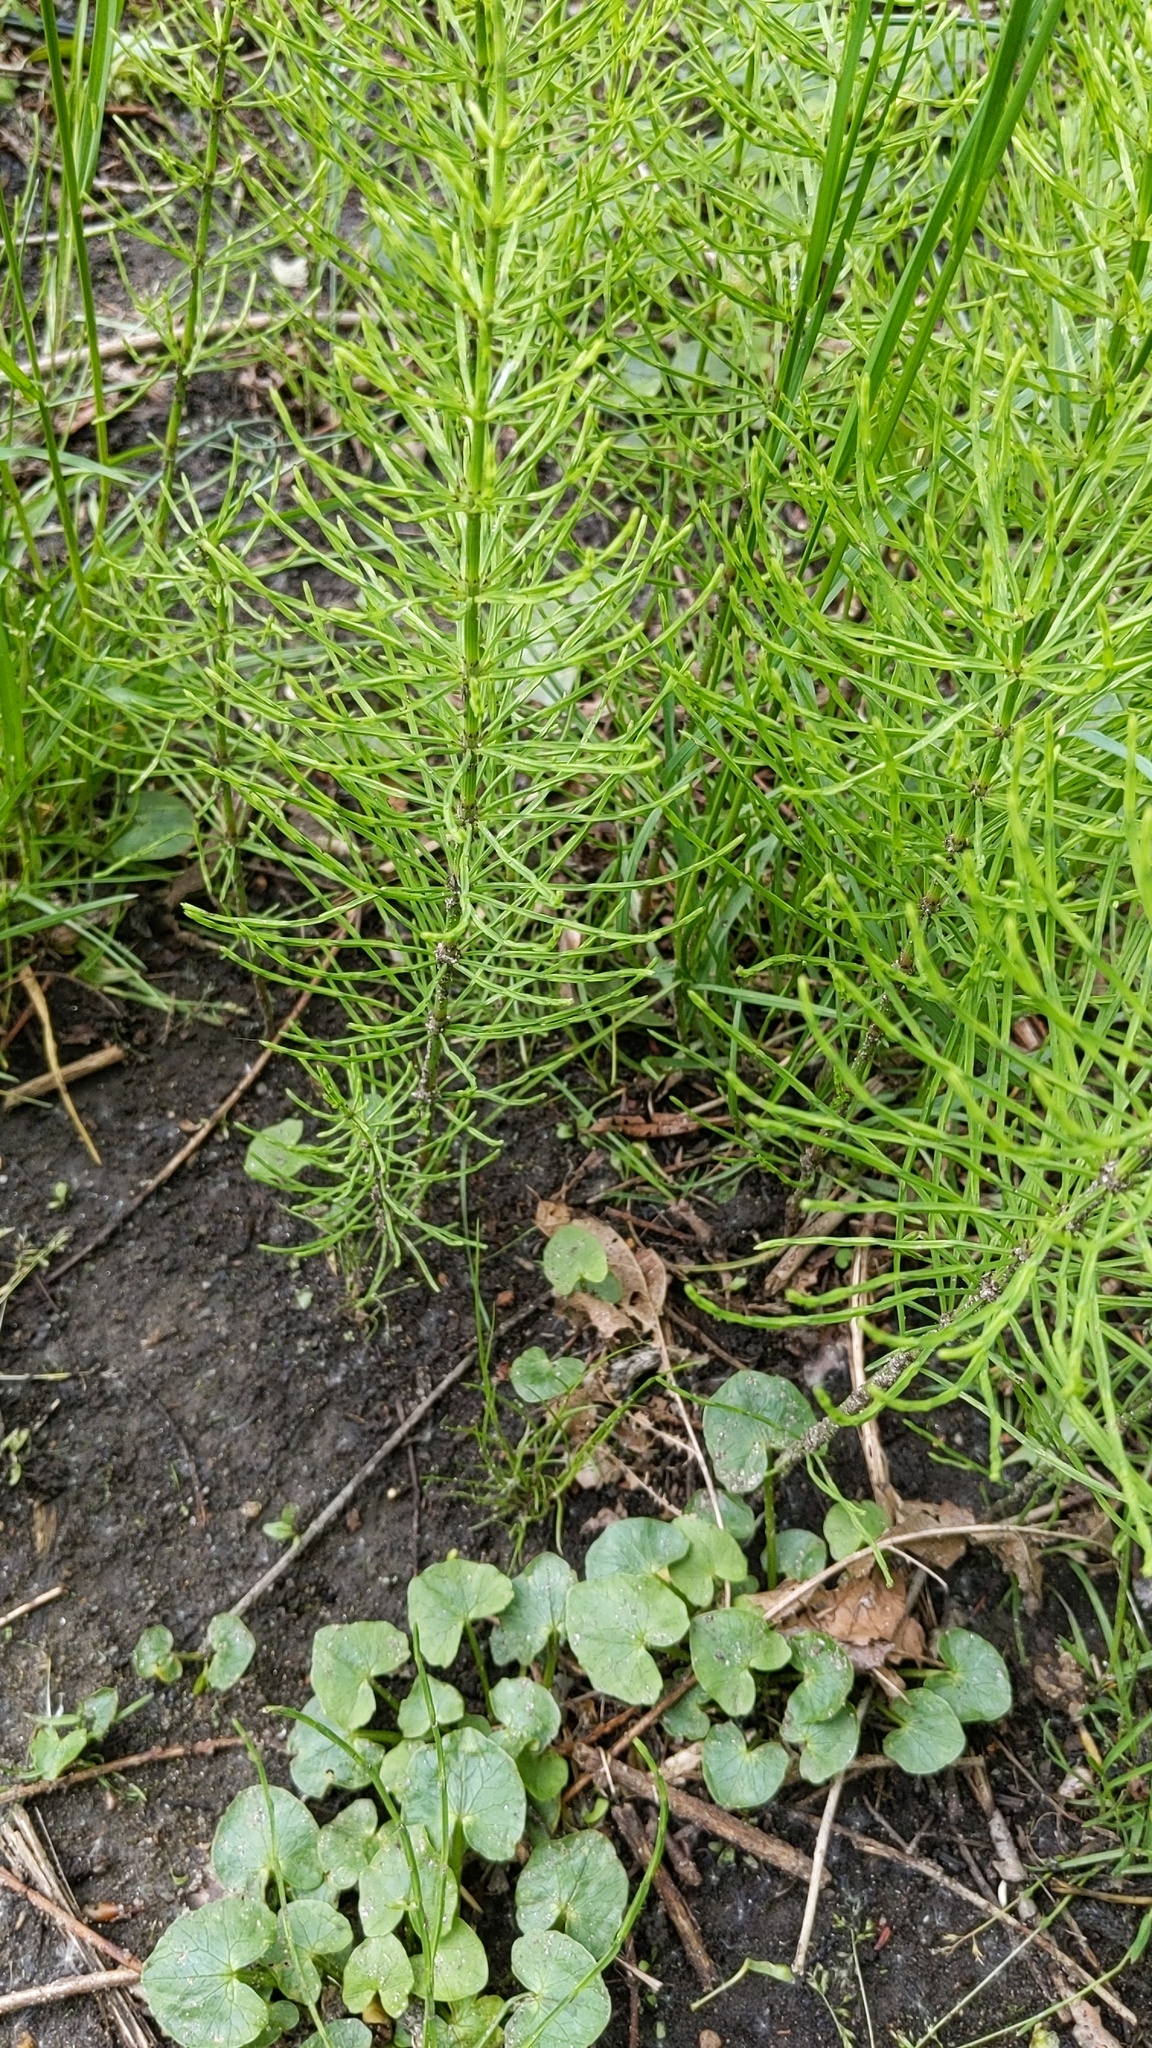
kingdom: Plantae
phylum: Tracheophyta
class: Polypodiopsida
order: Equisetales
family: Equisetaceae
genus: Equisetum
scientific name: Equisetum arvense
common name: Field horsetail
